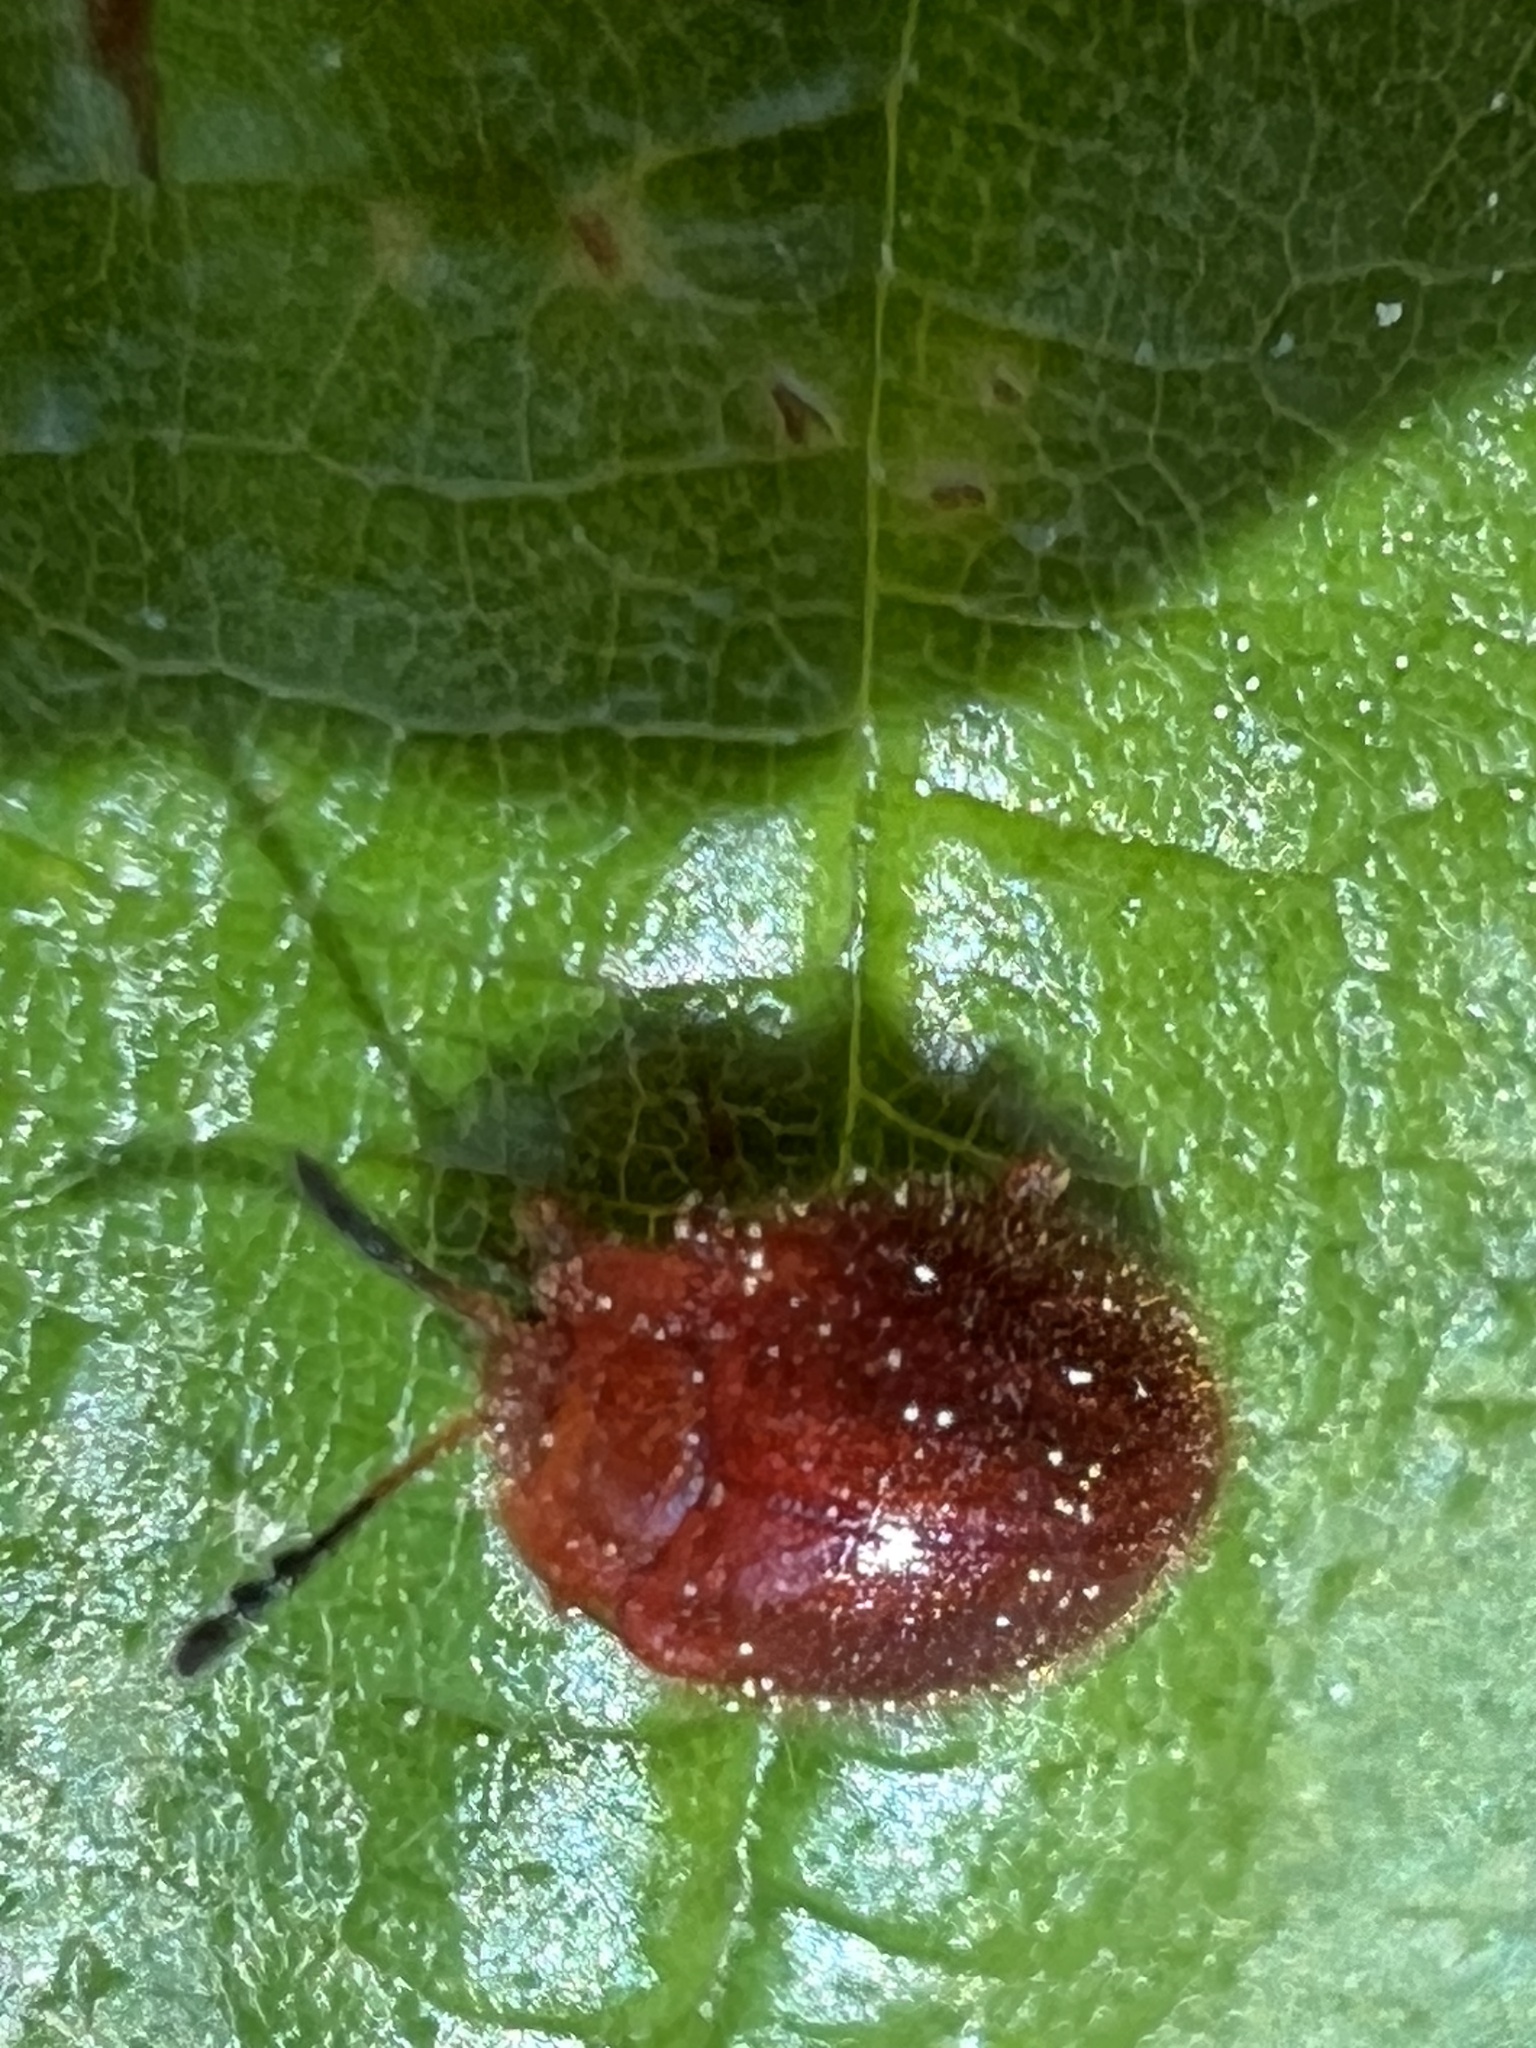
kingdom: Animalia
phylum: Arthropoda
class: Insecta
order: Coleoptera
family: Endomychidae
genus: Stenotarsus
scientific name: Stenotarsus blatchleyi
